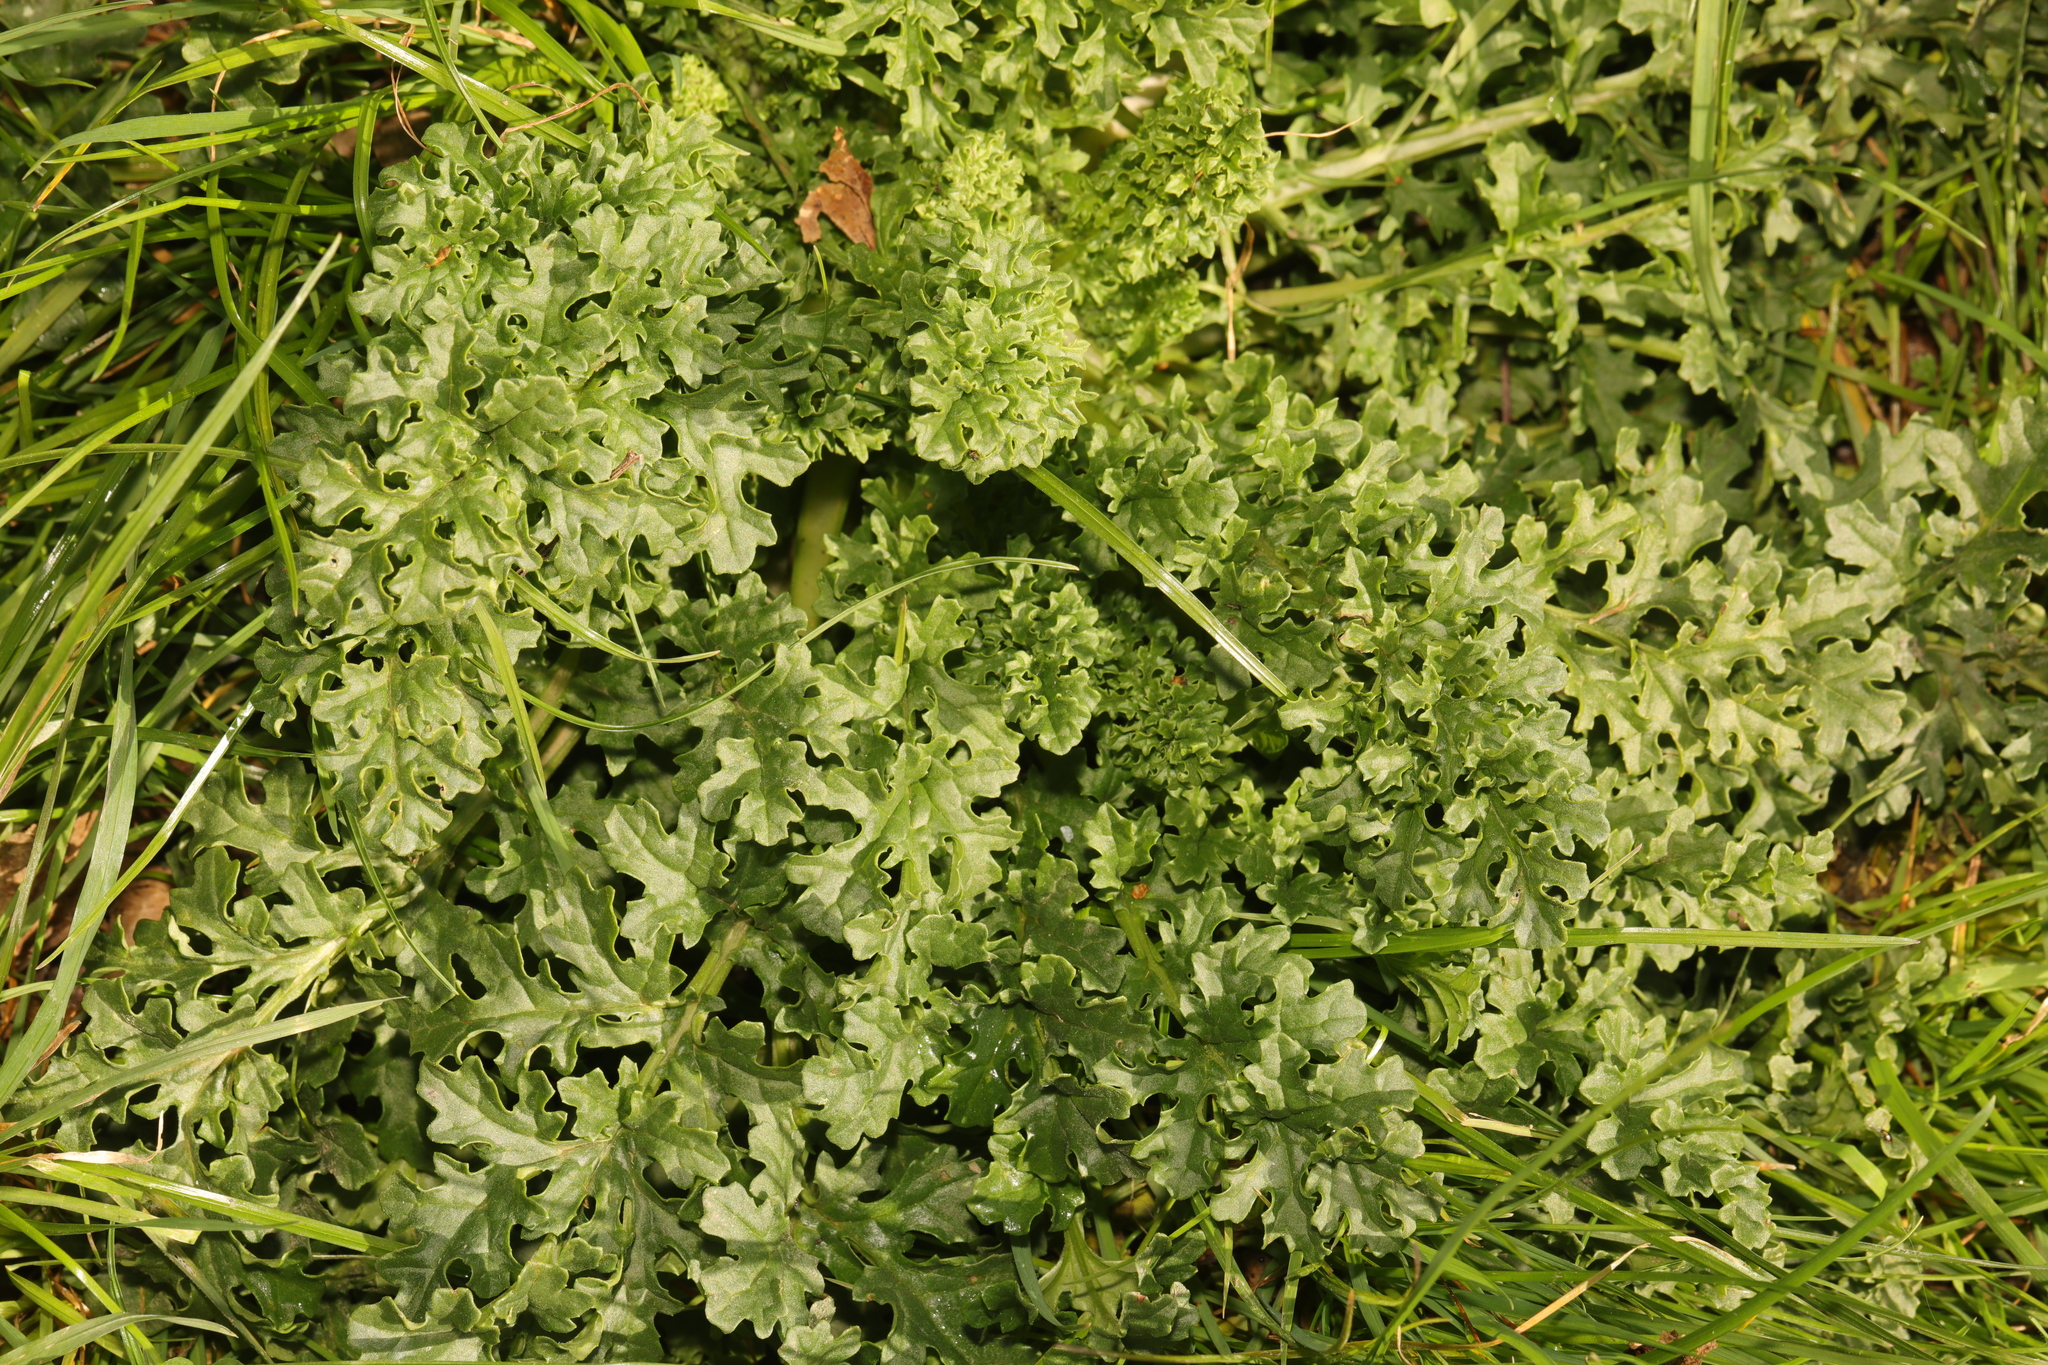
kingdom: Plantae
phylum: Tracheophyta
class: Magnoliopsida
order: Asterales
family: Asteraceae
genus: Jacobaea
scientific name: Jacobaea vulgaris
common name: Stinking willie
